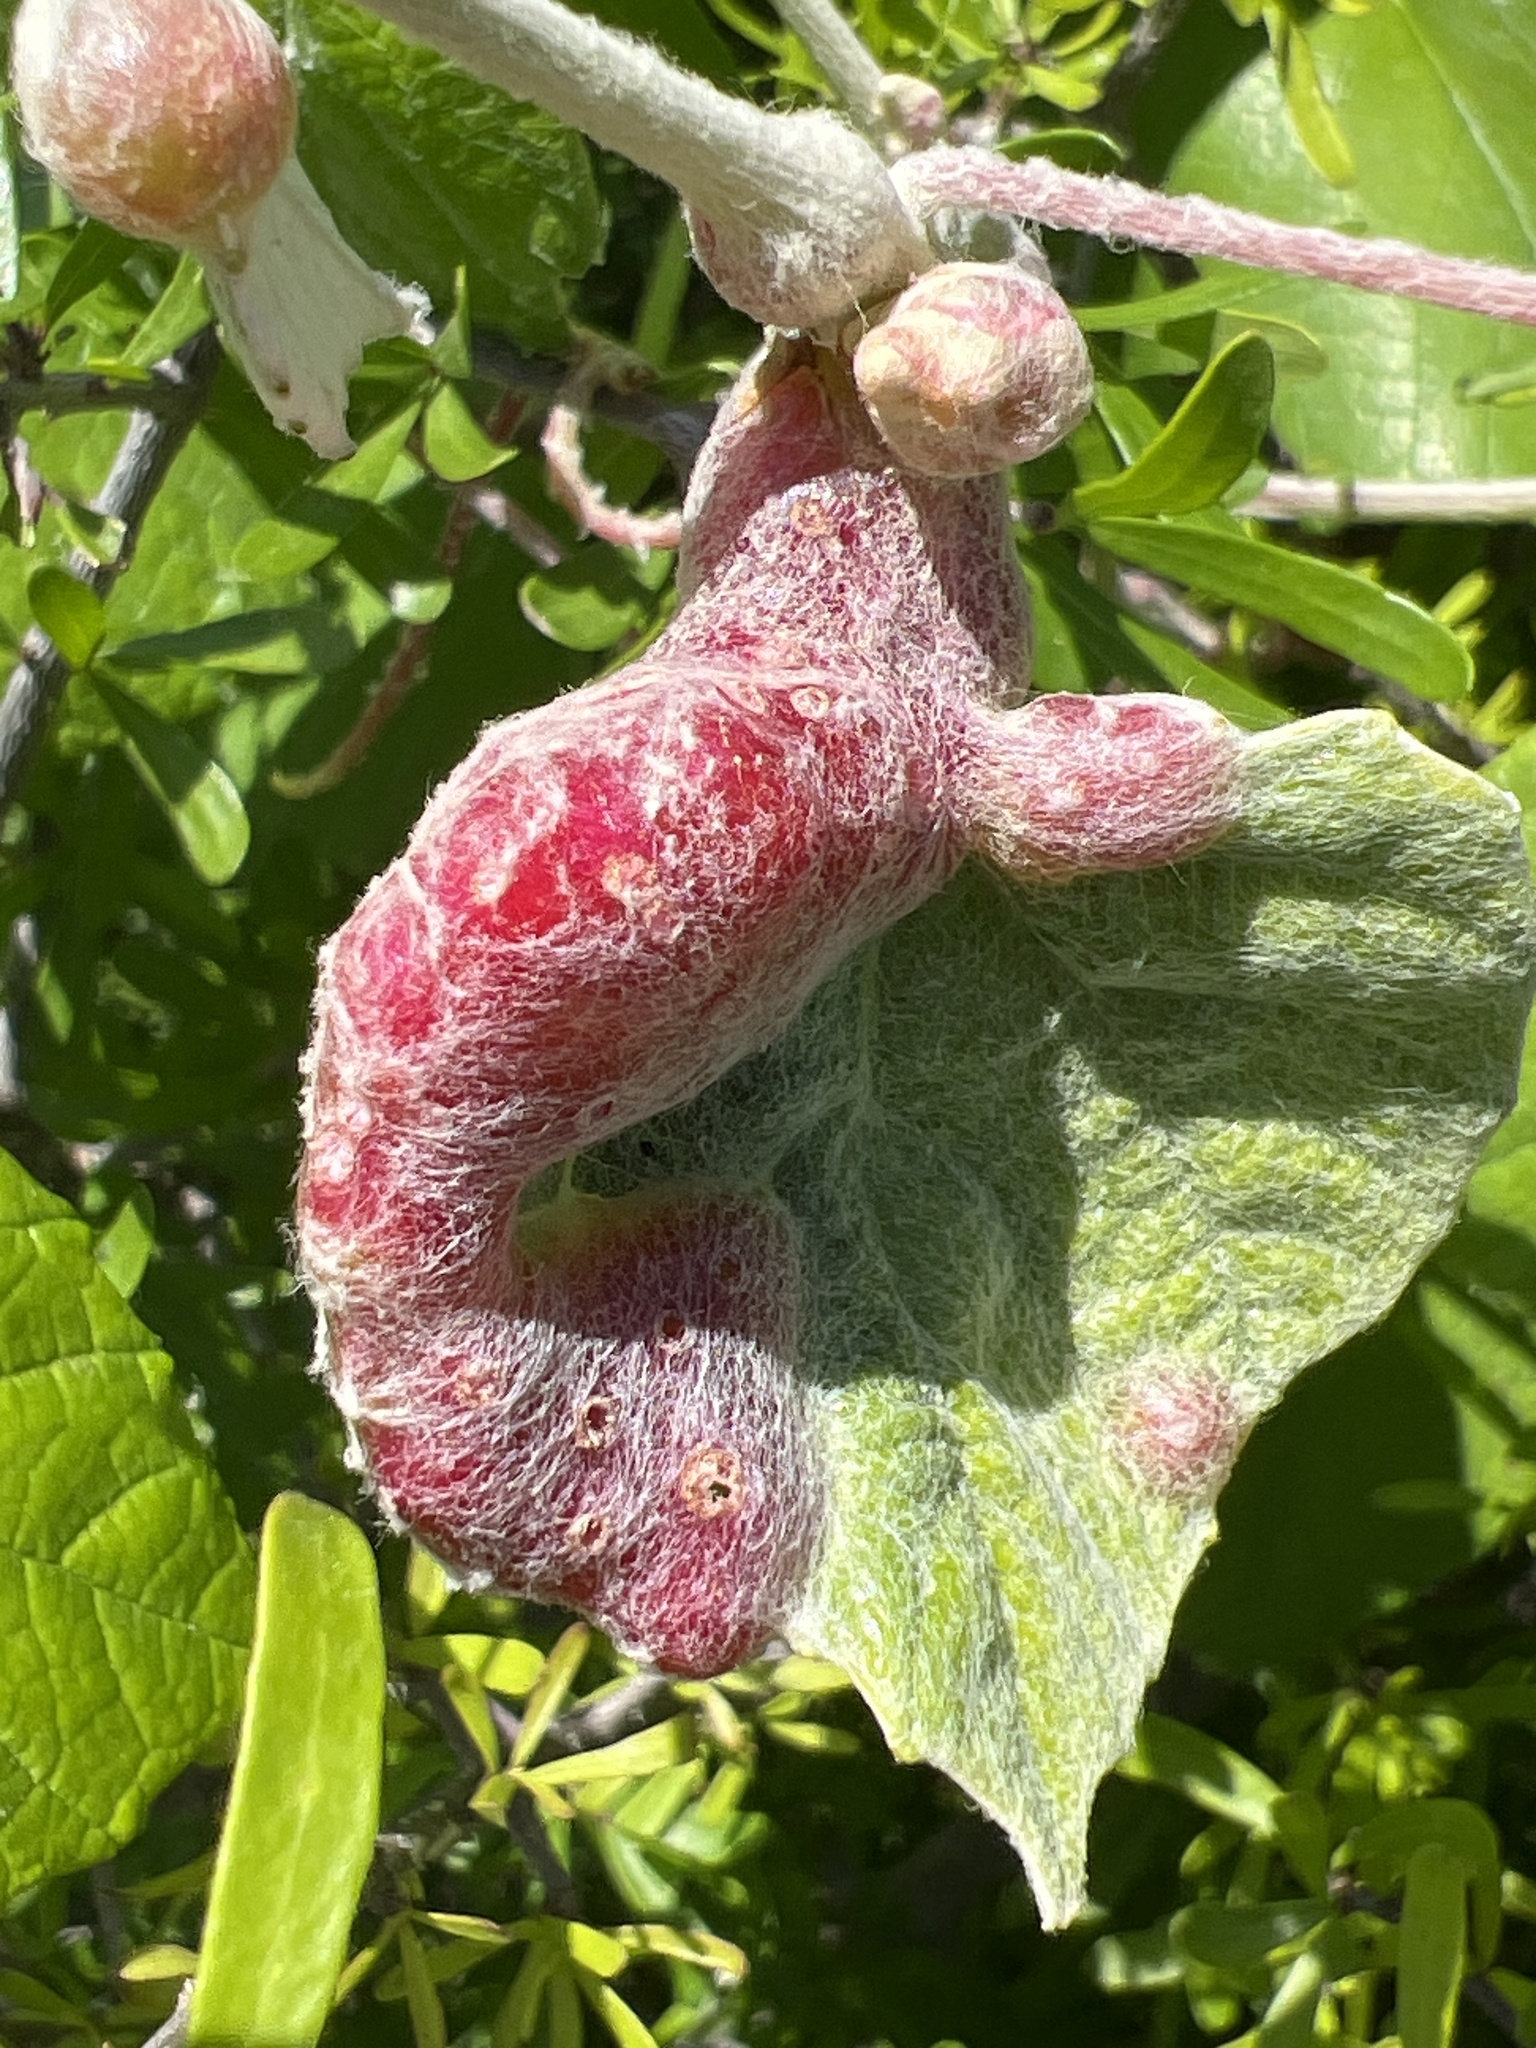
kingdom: Animalia
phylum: Arthropoda
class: Insecta
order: Diptera
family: Cecidomyiidae
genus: Vitisiella
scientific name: Vitisiella brevicauda
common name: Grape tumid gallmaker midge
